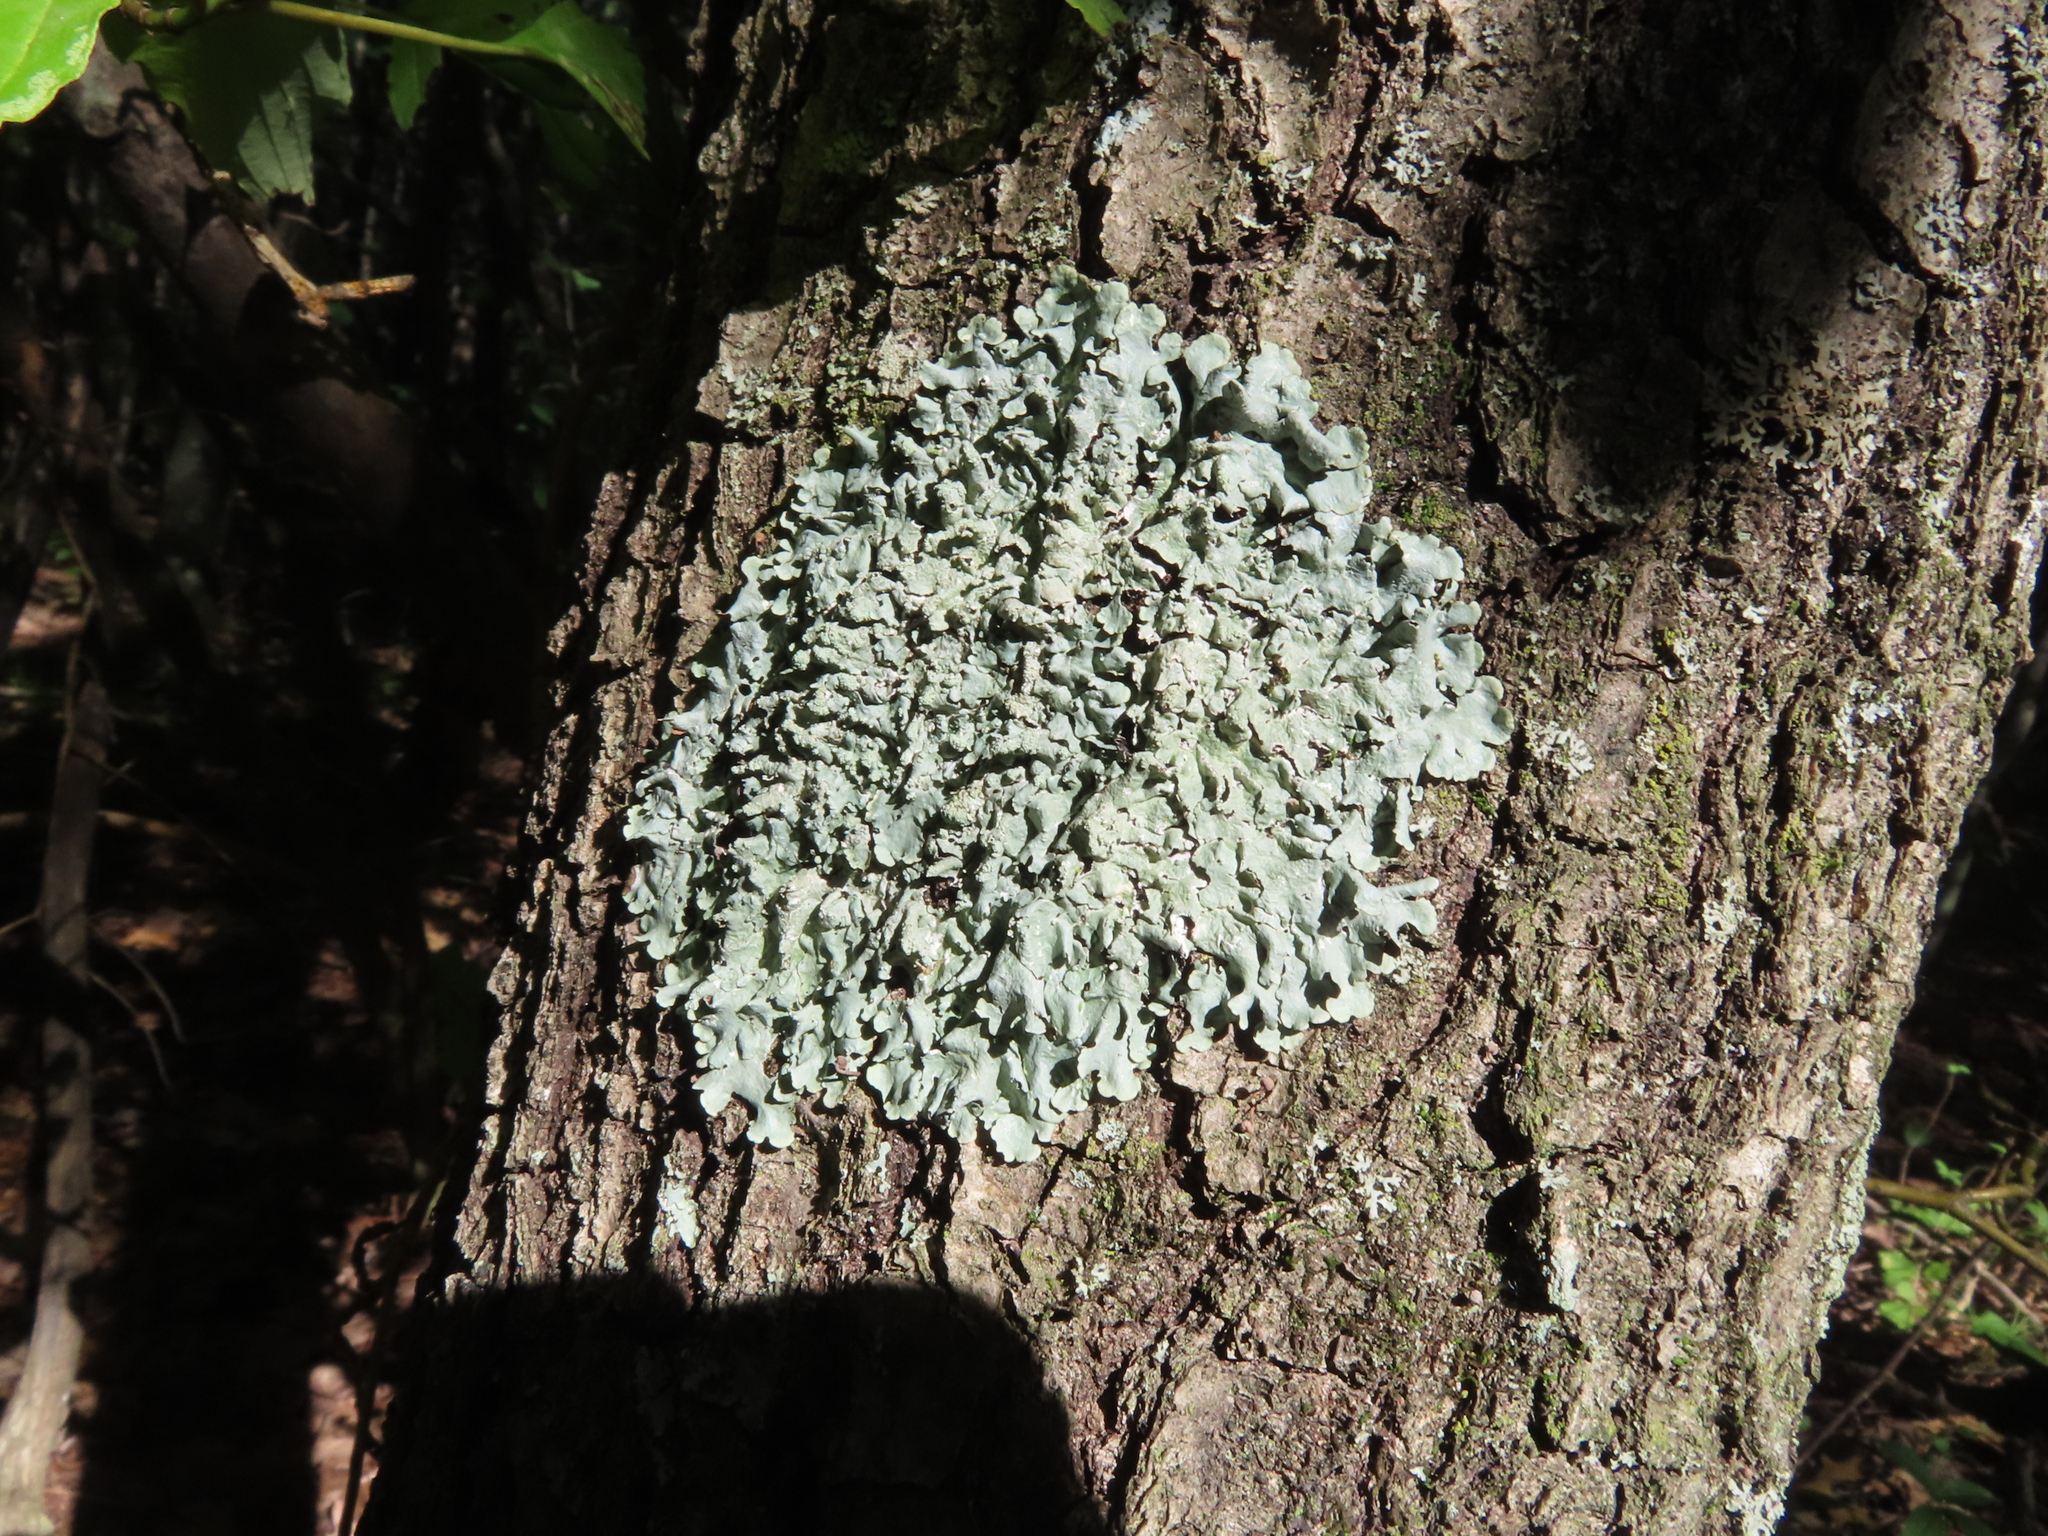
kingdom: Fungi
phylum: Ascomycota
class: Lecanoromycetes
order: Lecanorales
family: Parmeliaceae
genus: Flavoparmelia
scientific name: Flavoparmelia caperata
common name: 40-mile per hour lichen
